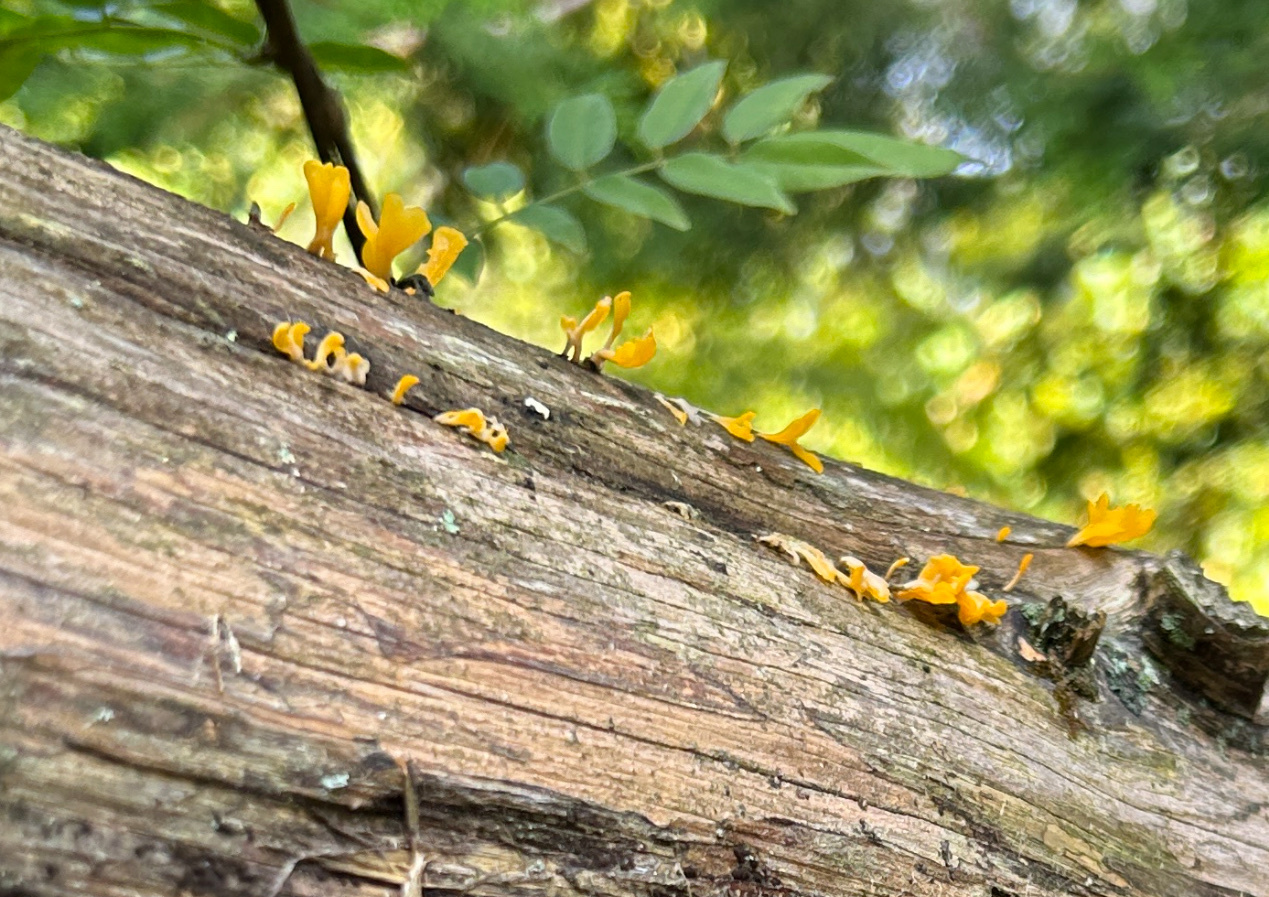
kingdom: Fungi
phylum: Basidiomycota
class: Dacrymycetes
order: Dacrymycetales
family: Dacrymycetaceae
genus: Dacrymyces
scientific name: Dacrymyces spathularius
